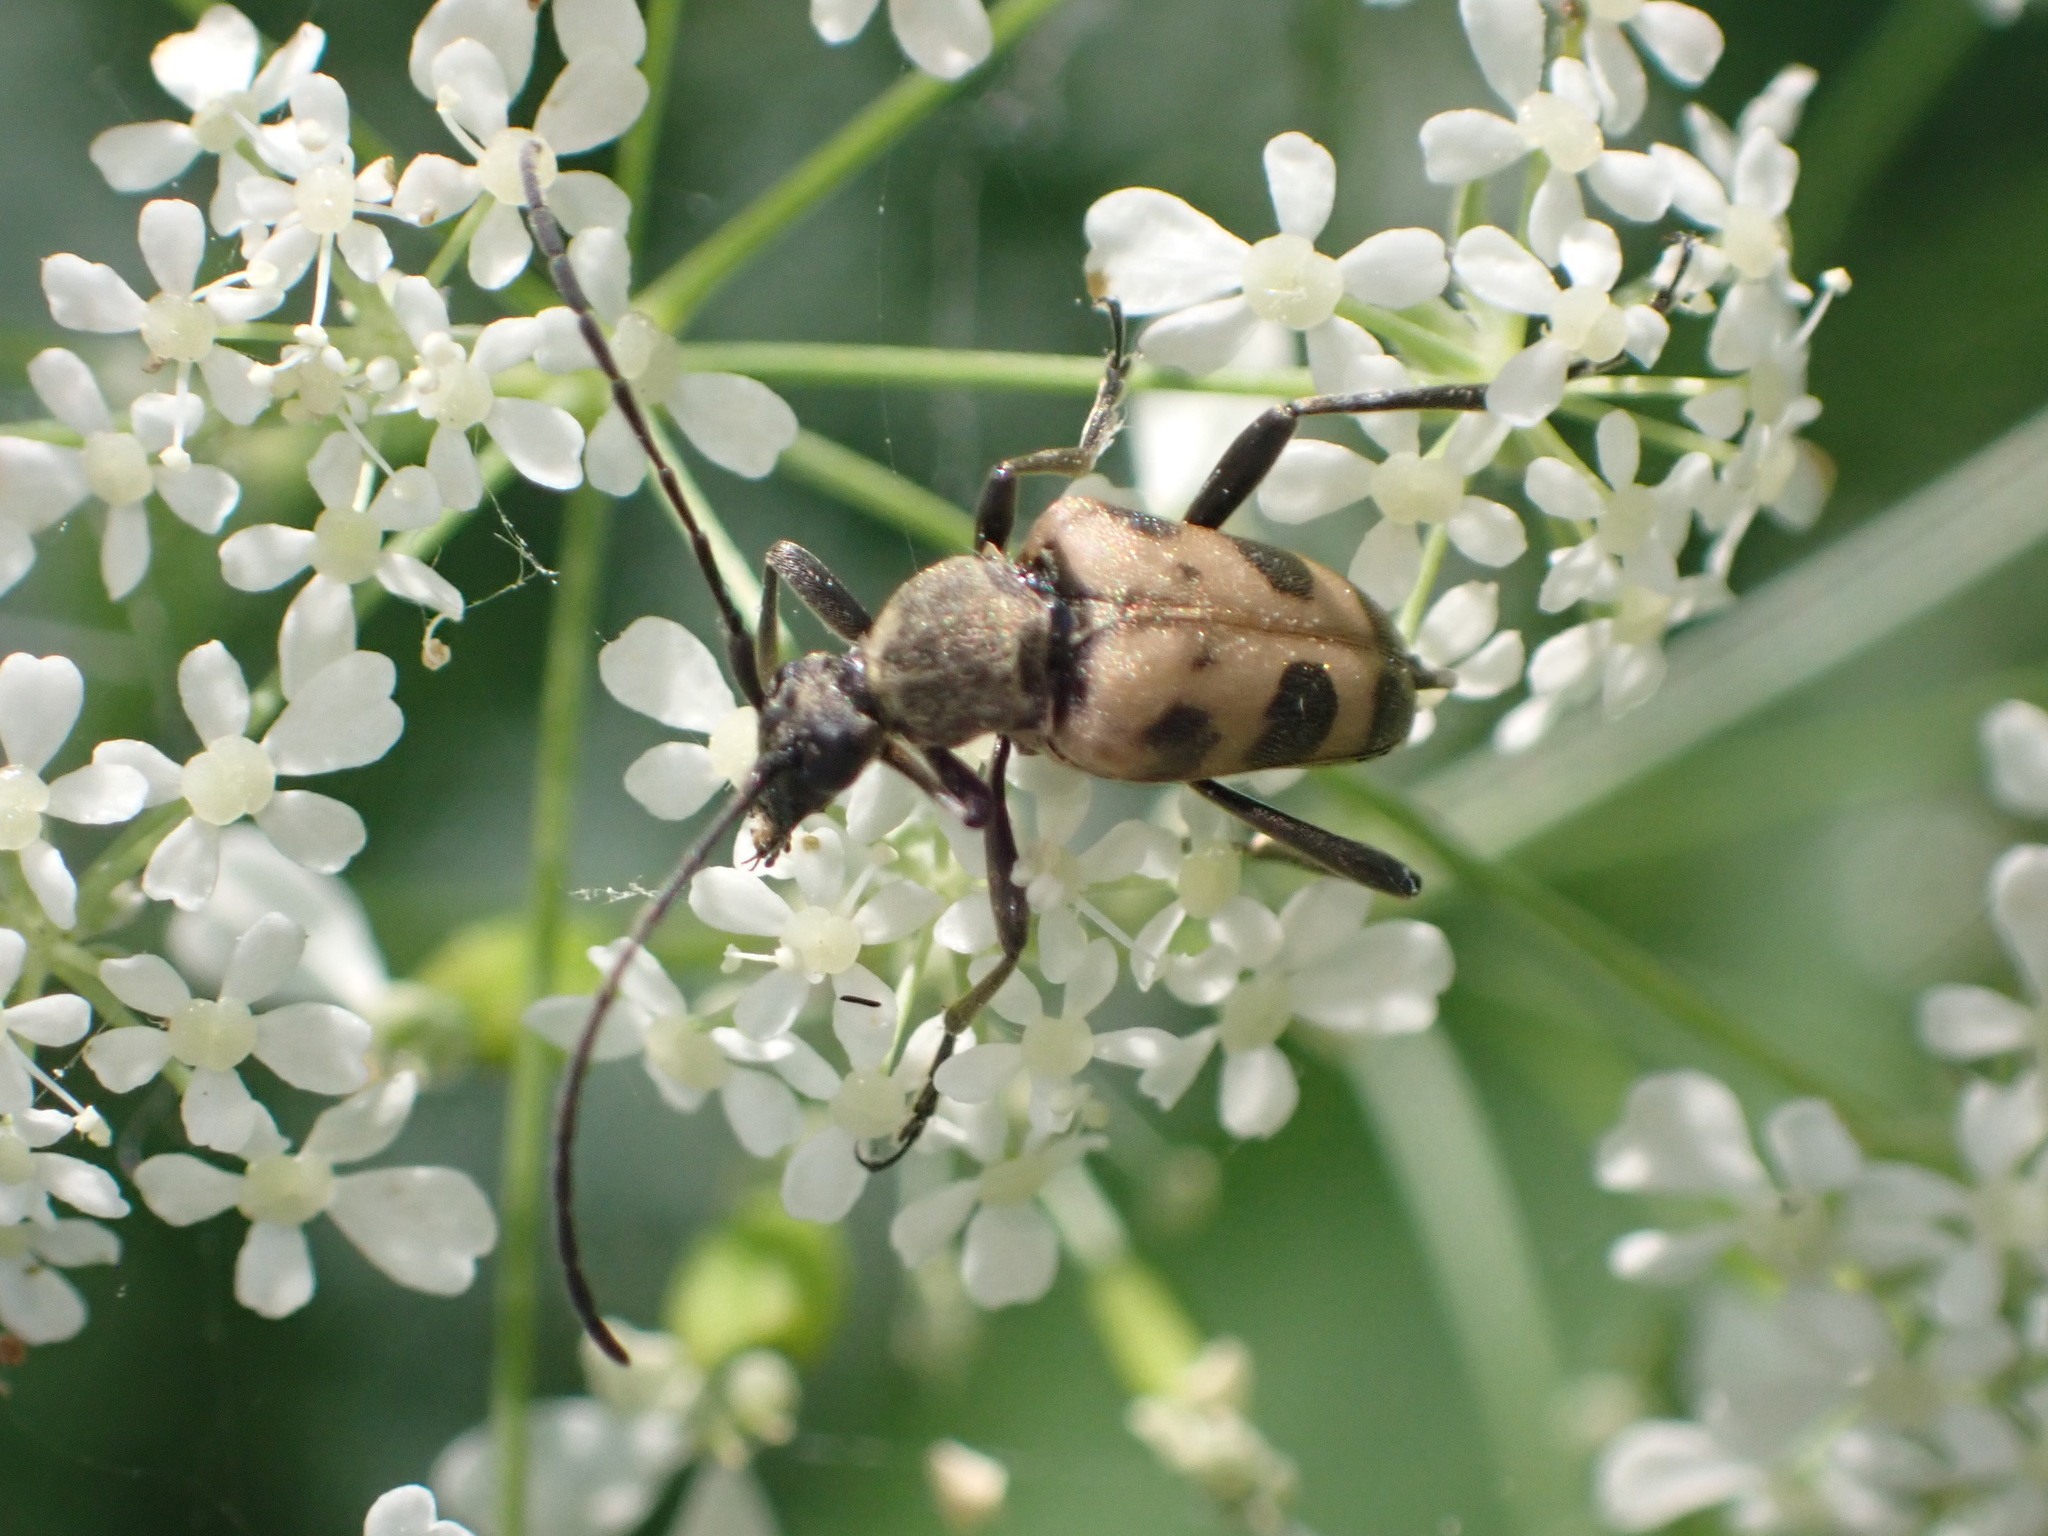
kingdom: Animalia
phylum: Arthropoda
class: Insecta
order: Coleoptera
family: Cerambycidae
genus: Pachytodes
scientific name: Pachytodes cerambyciformis
